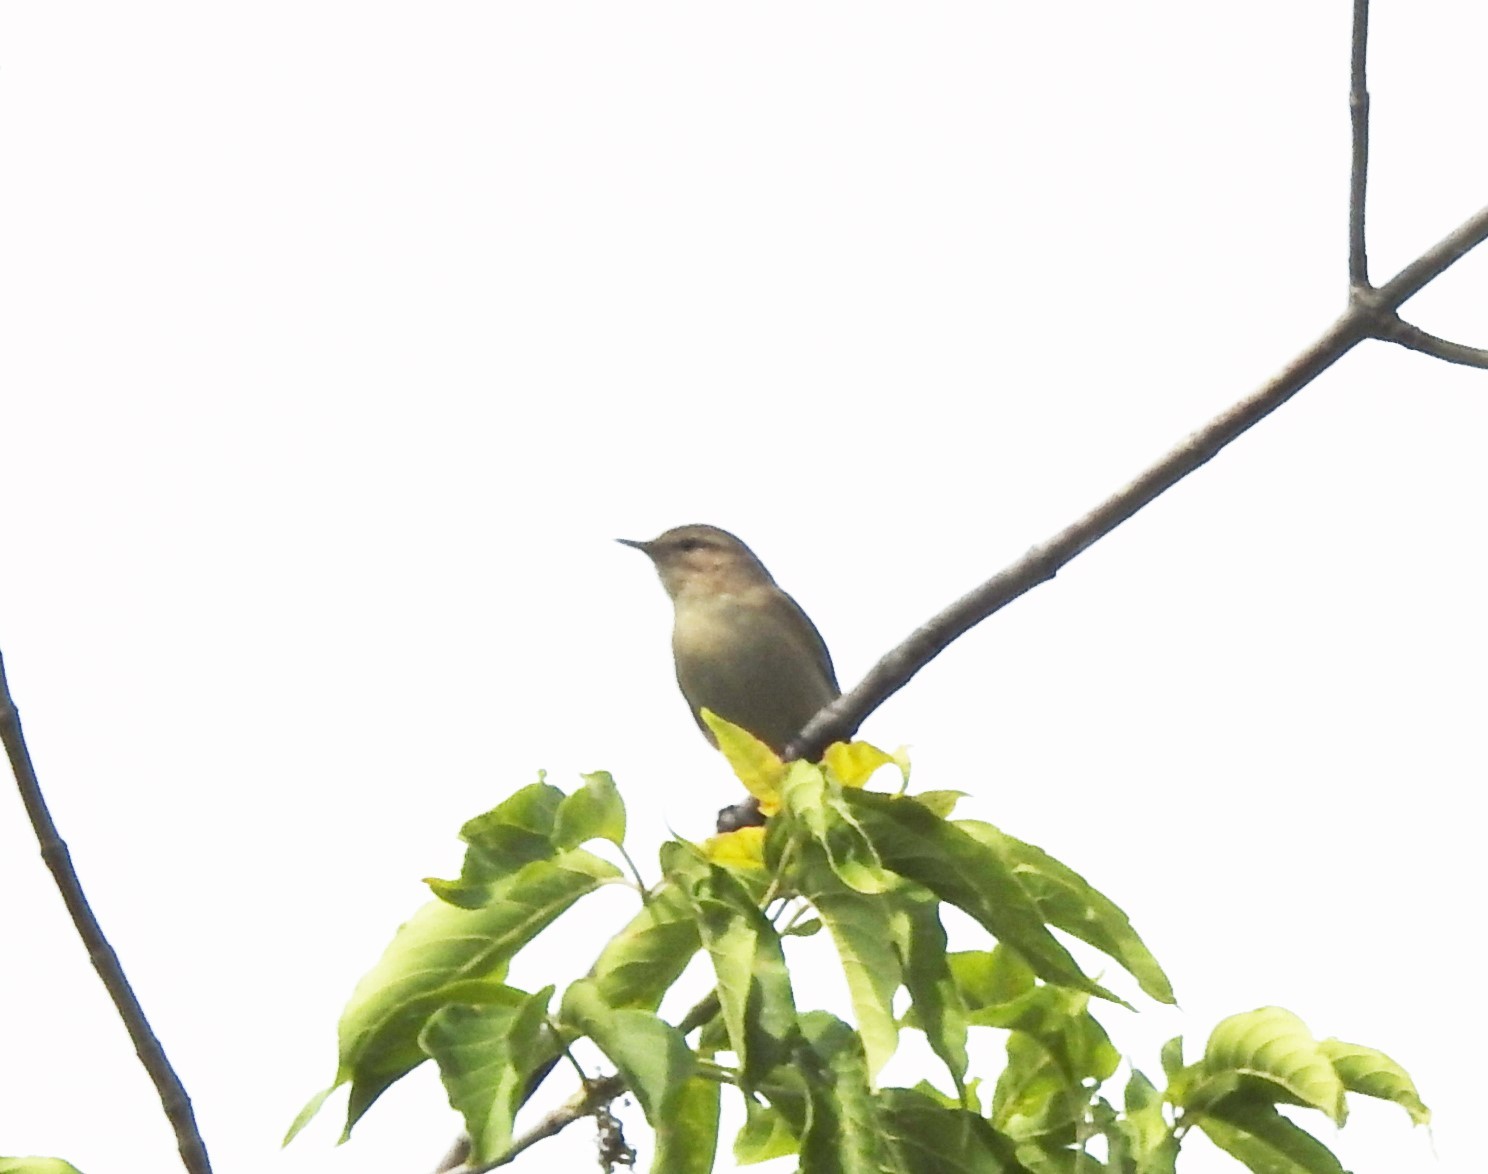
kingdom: Animalia
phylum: Chordata
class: Aves
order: Passeriformes
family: Phylloscopidae
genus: Phylloscopus
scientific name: Phylloscopus collybita
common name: Common chiffchaff
